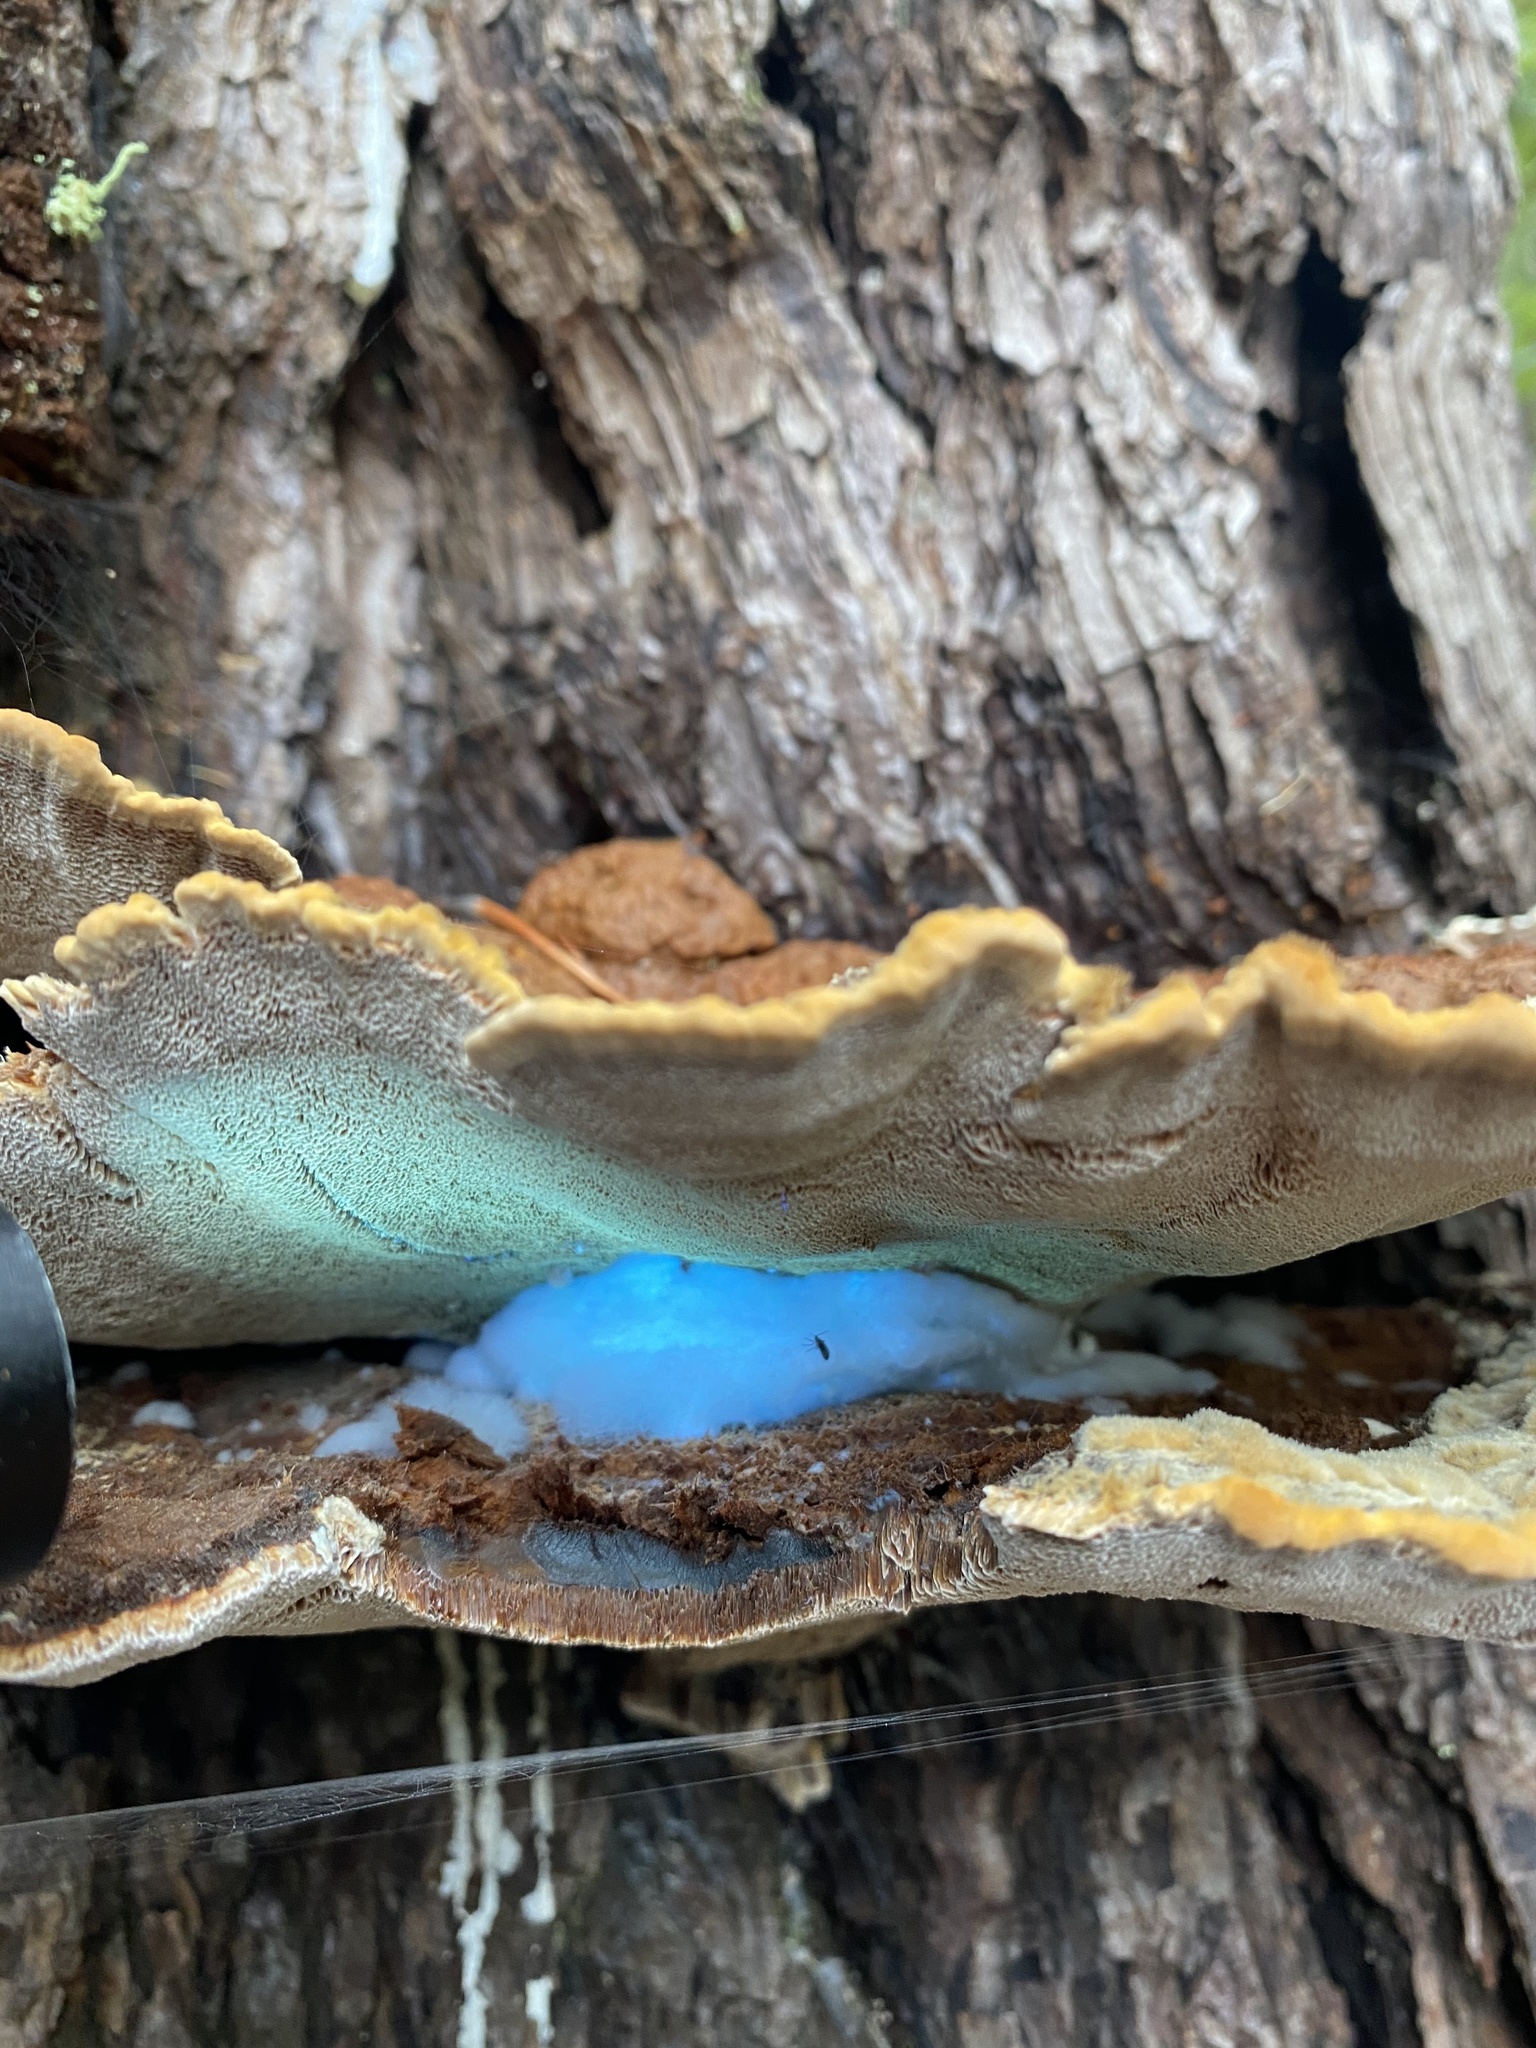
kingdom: Fungi
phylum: Basidiomycota
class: Agaricomycetes
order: Polyporales
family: Laetiporaceae
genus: Phaeolus
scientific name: Phaeolus schweinitzii
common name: Dyer's mazegill
